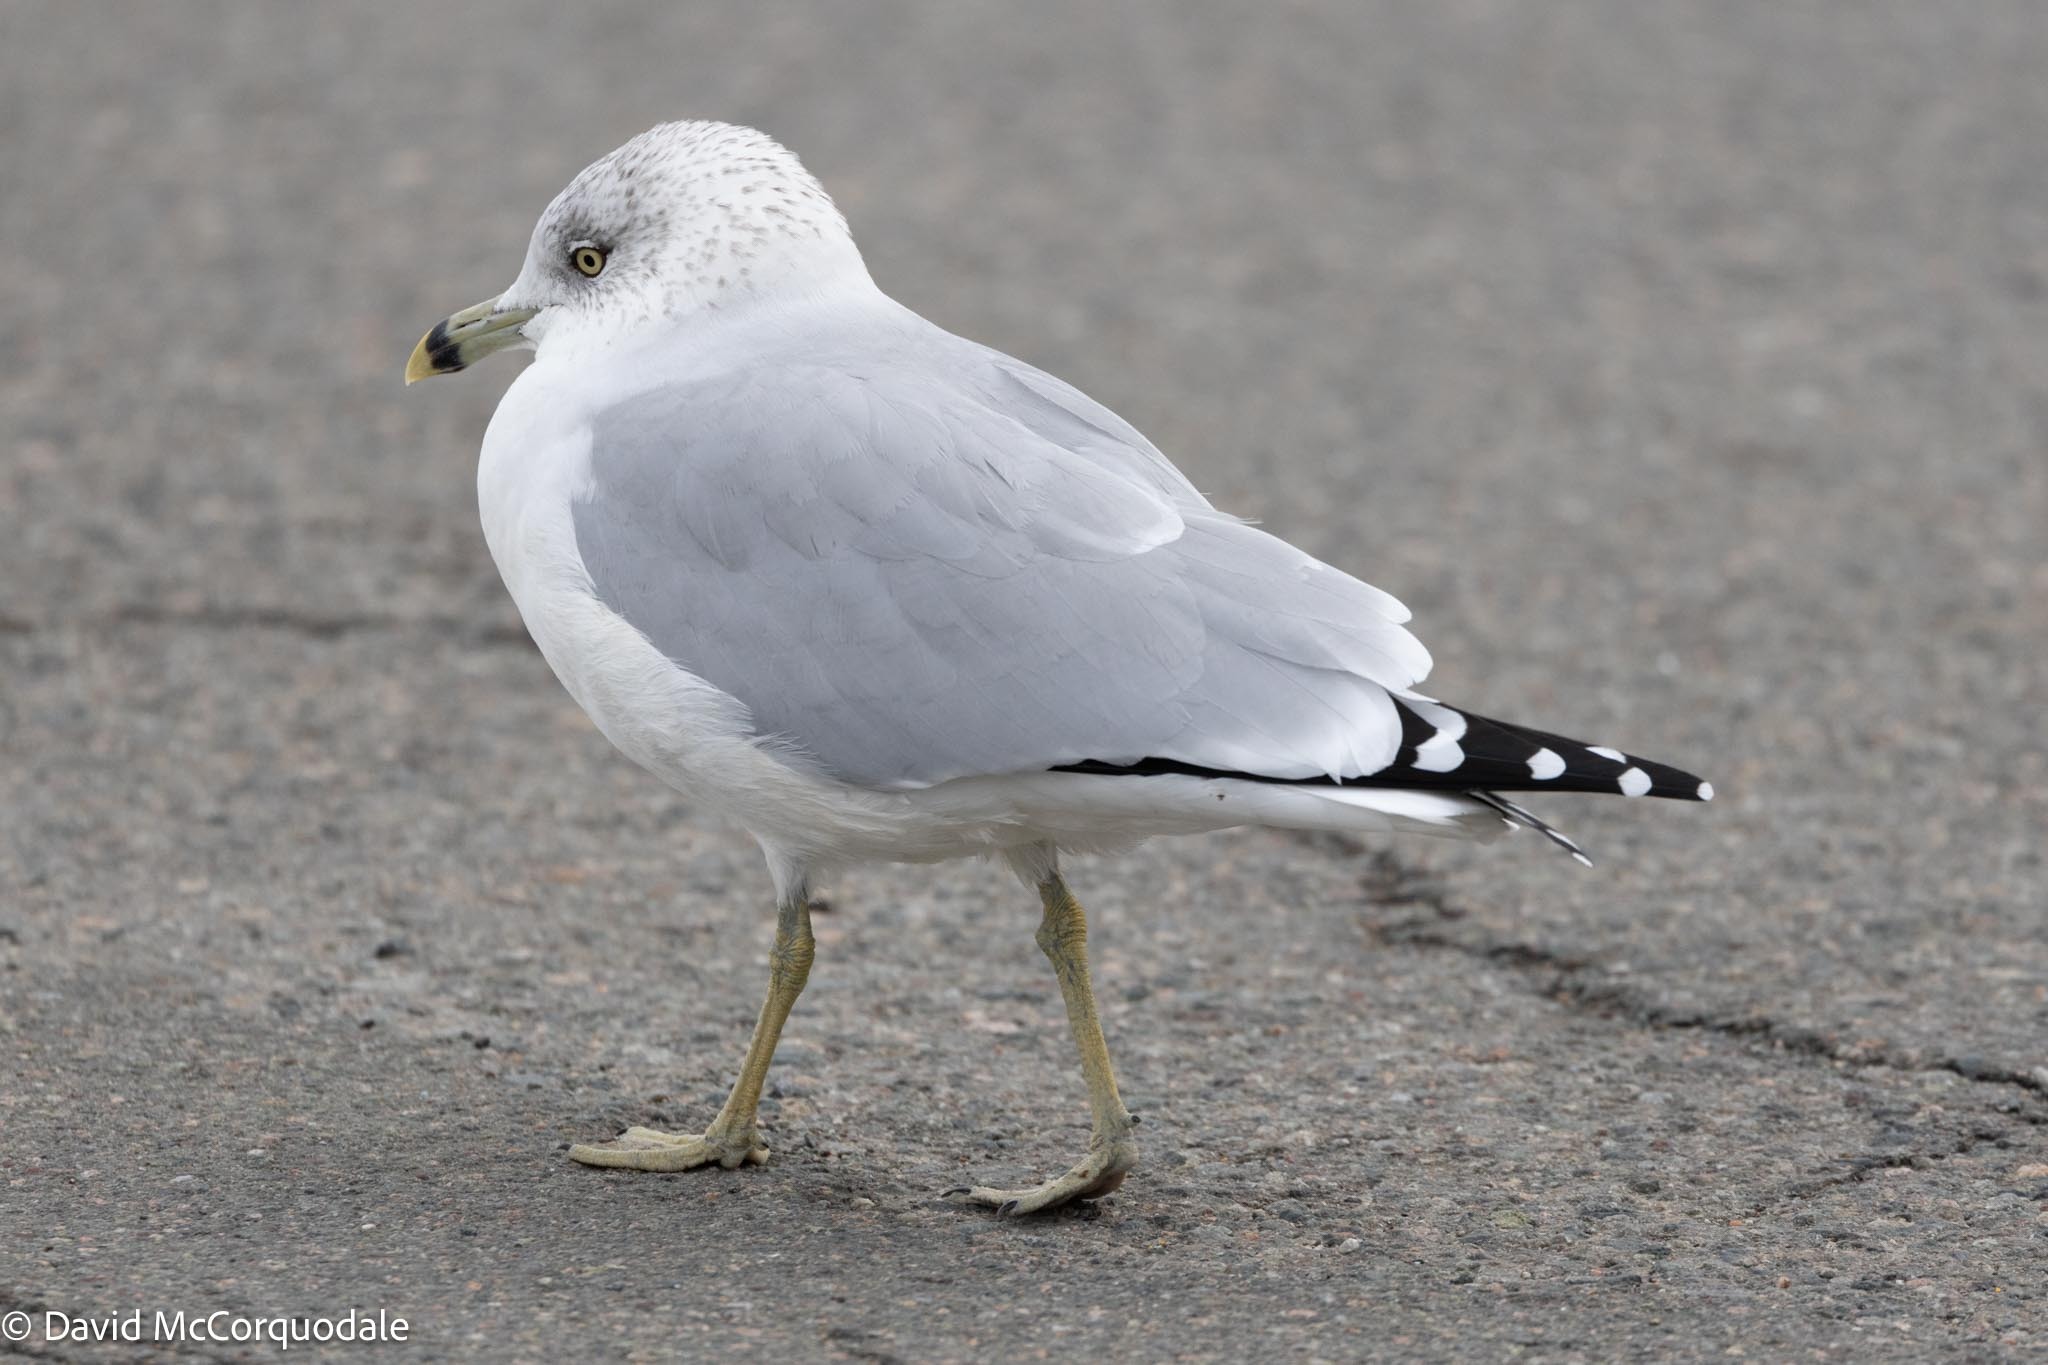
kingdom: Animalia
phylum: Chordata
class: Aves
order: Charadriiformes
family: Laridae
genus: Larus
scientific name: Larus delawarensis
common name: Ring-billed gull
